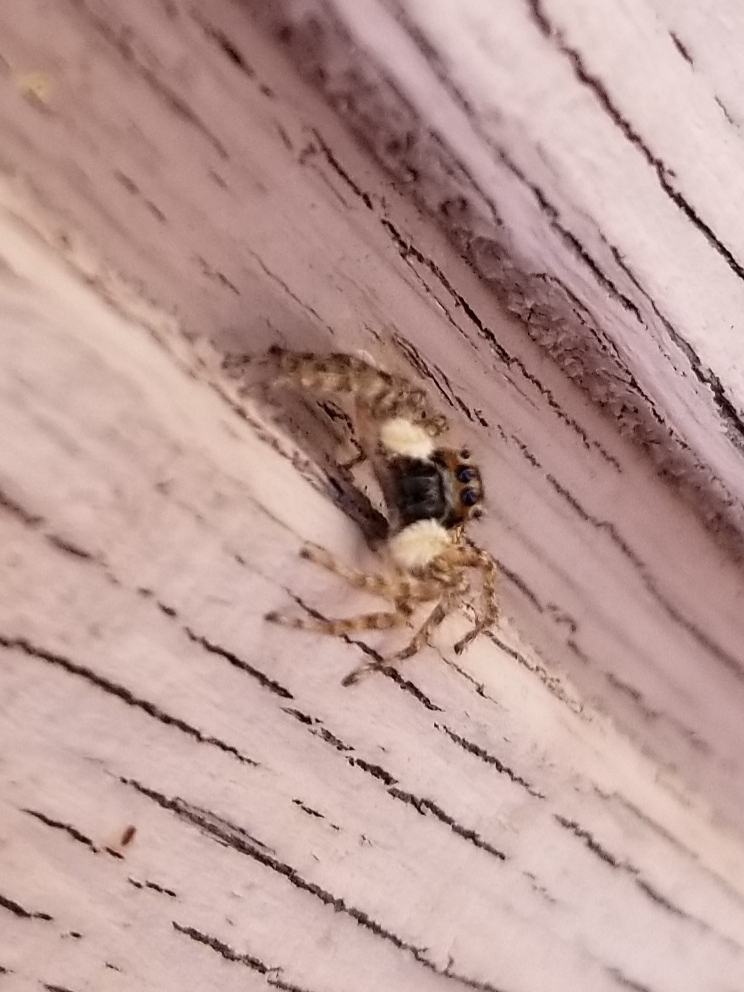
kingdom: Animalia
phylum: Arthropoda
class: Arachnida
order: Araneae
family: Salticidae
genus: Menemerus
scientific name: Menemerus semilimbatus
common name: Jumping spider
